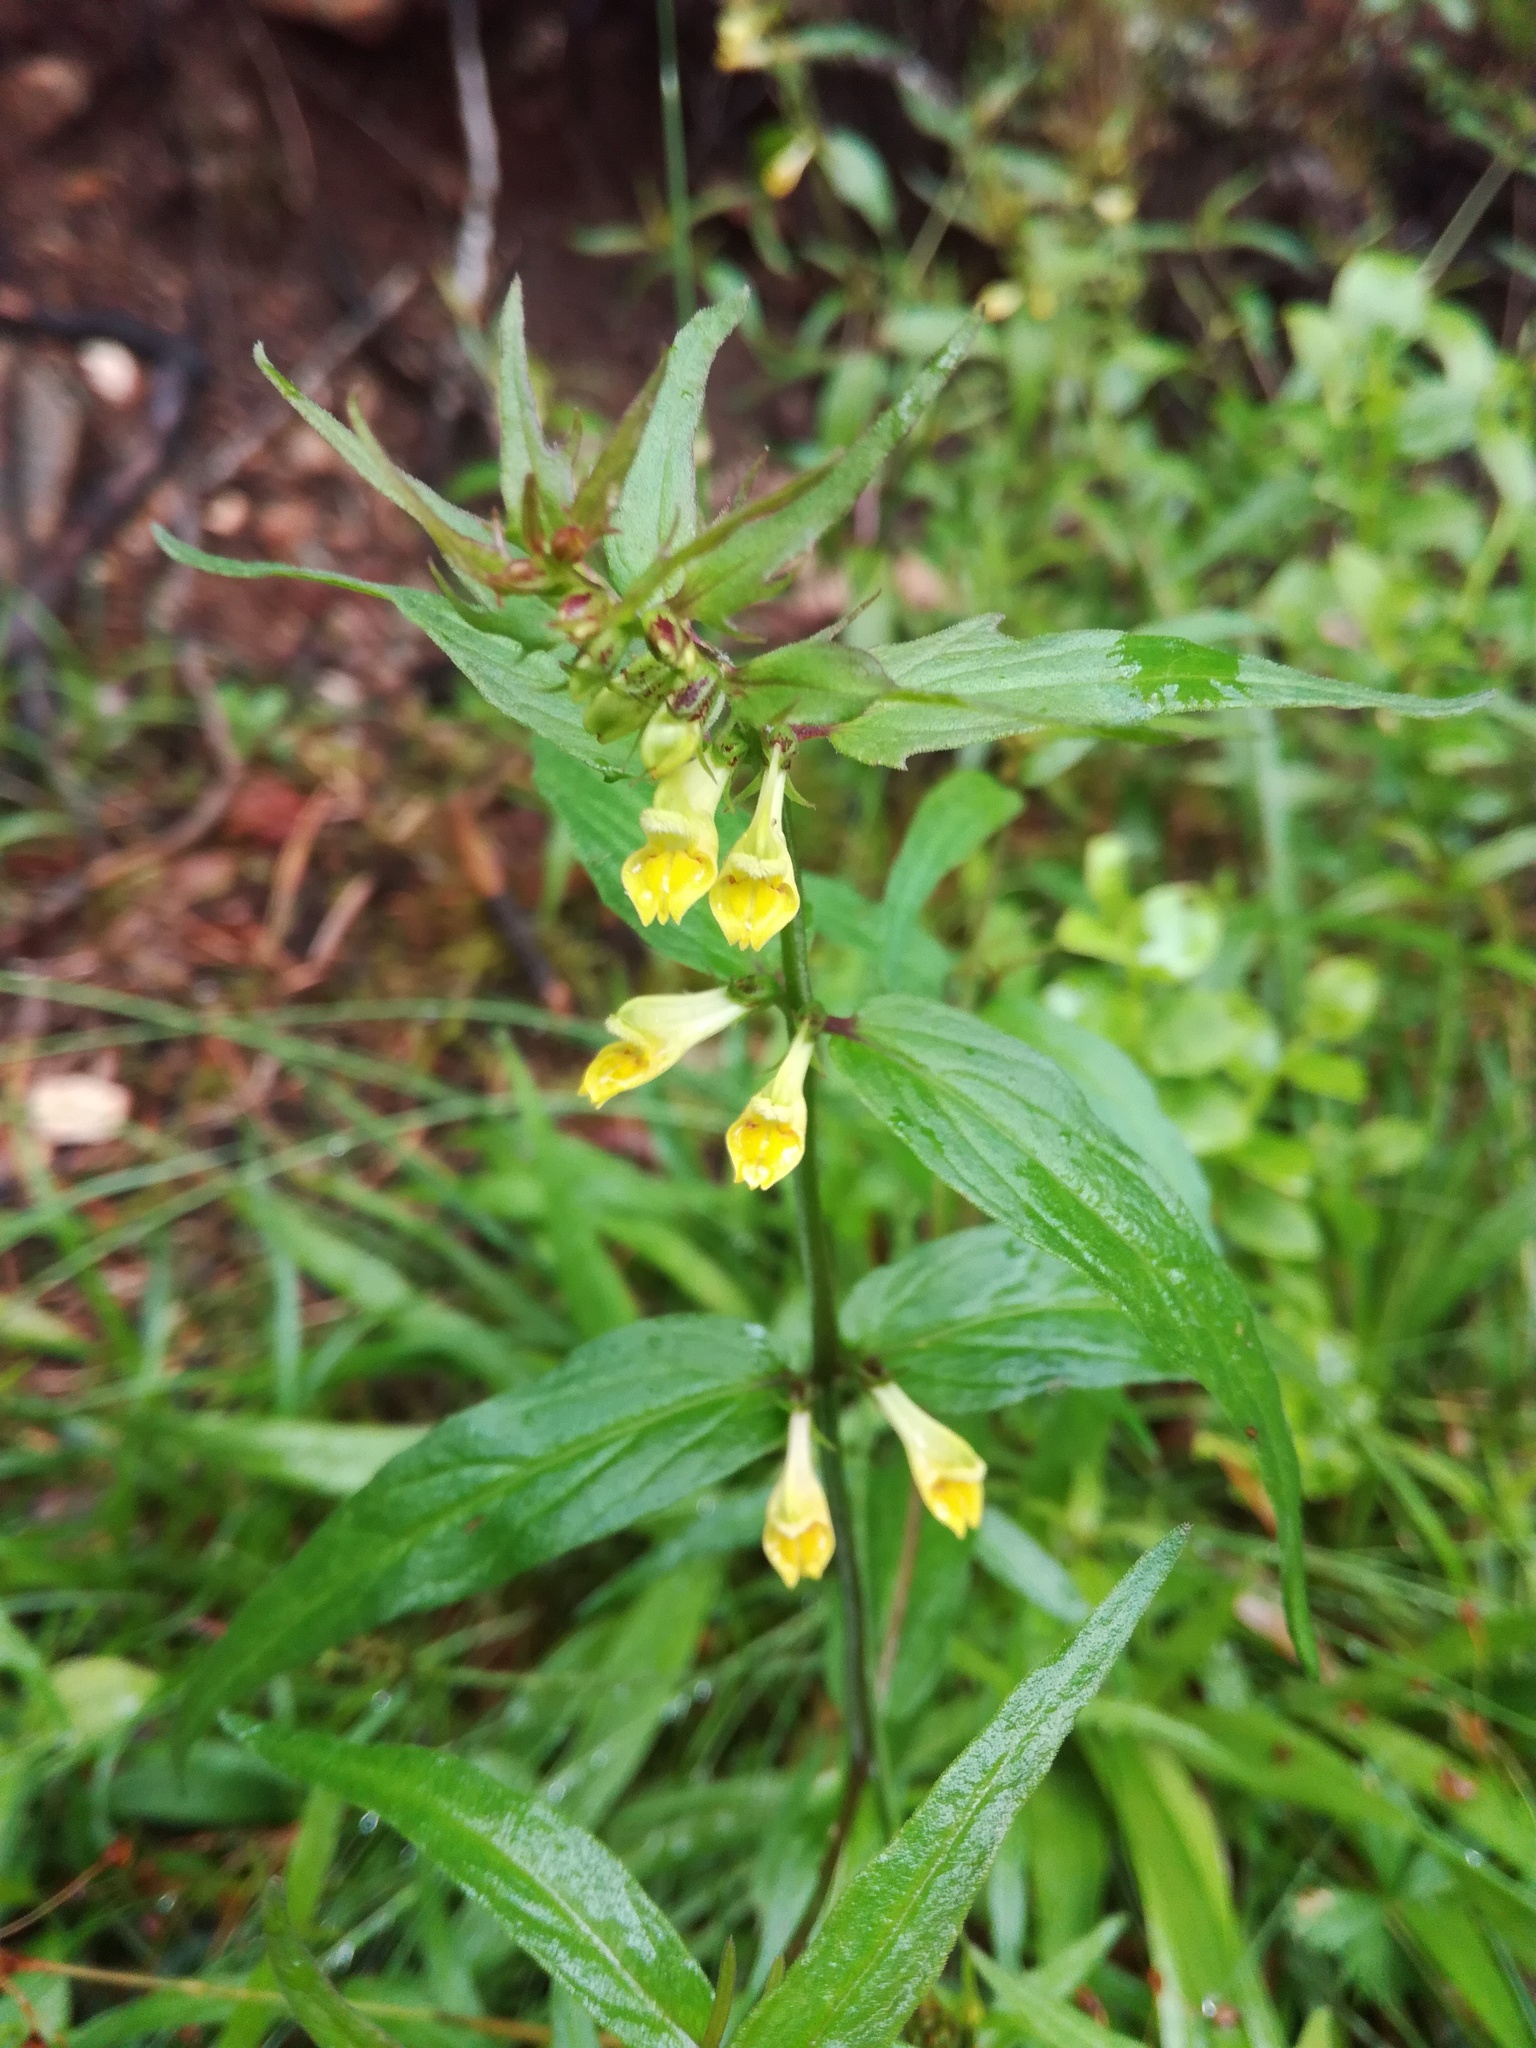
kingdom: Plantae
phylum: Tracheophyta
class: Magnoliopsida
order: Lamiales
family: Orobanchaceae
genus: Melampyrum
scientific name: Melampyrum pratense
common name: Common cow-wheat
